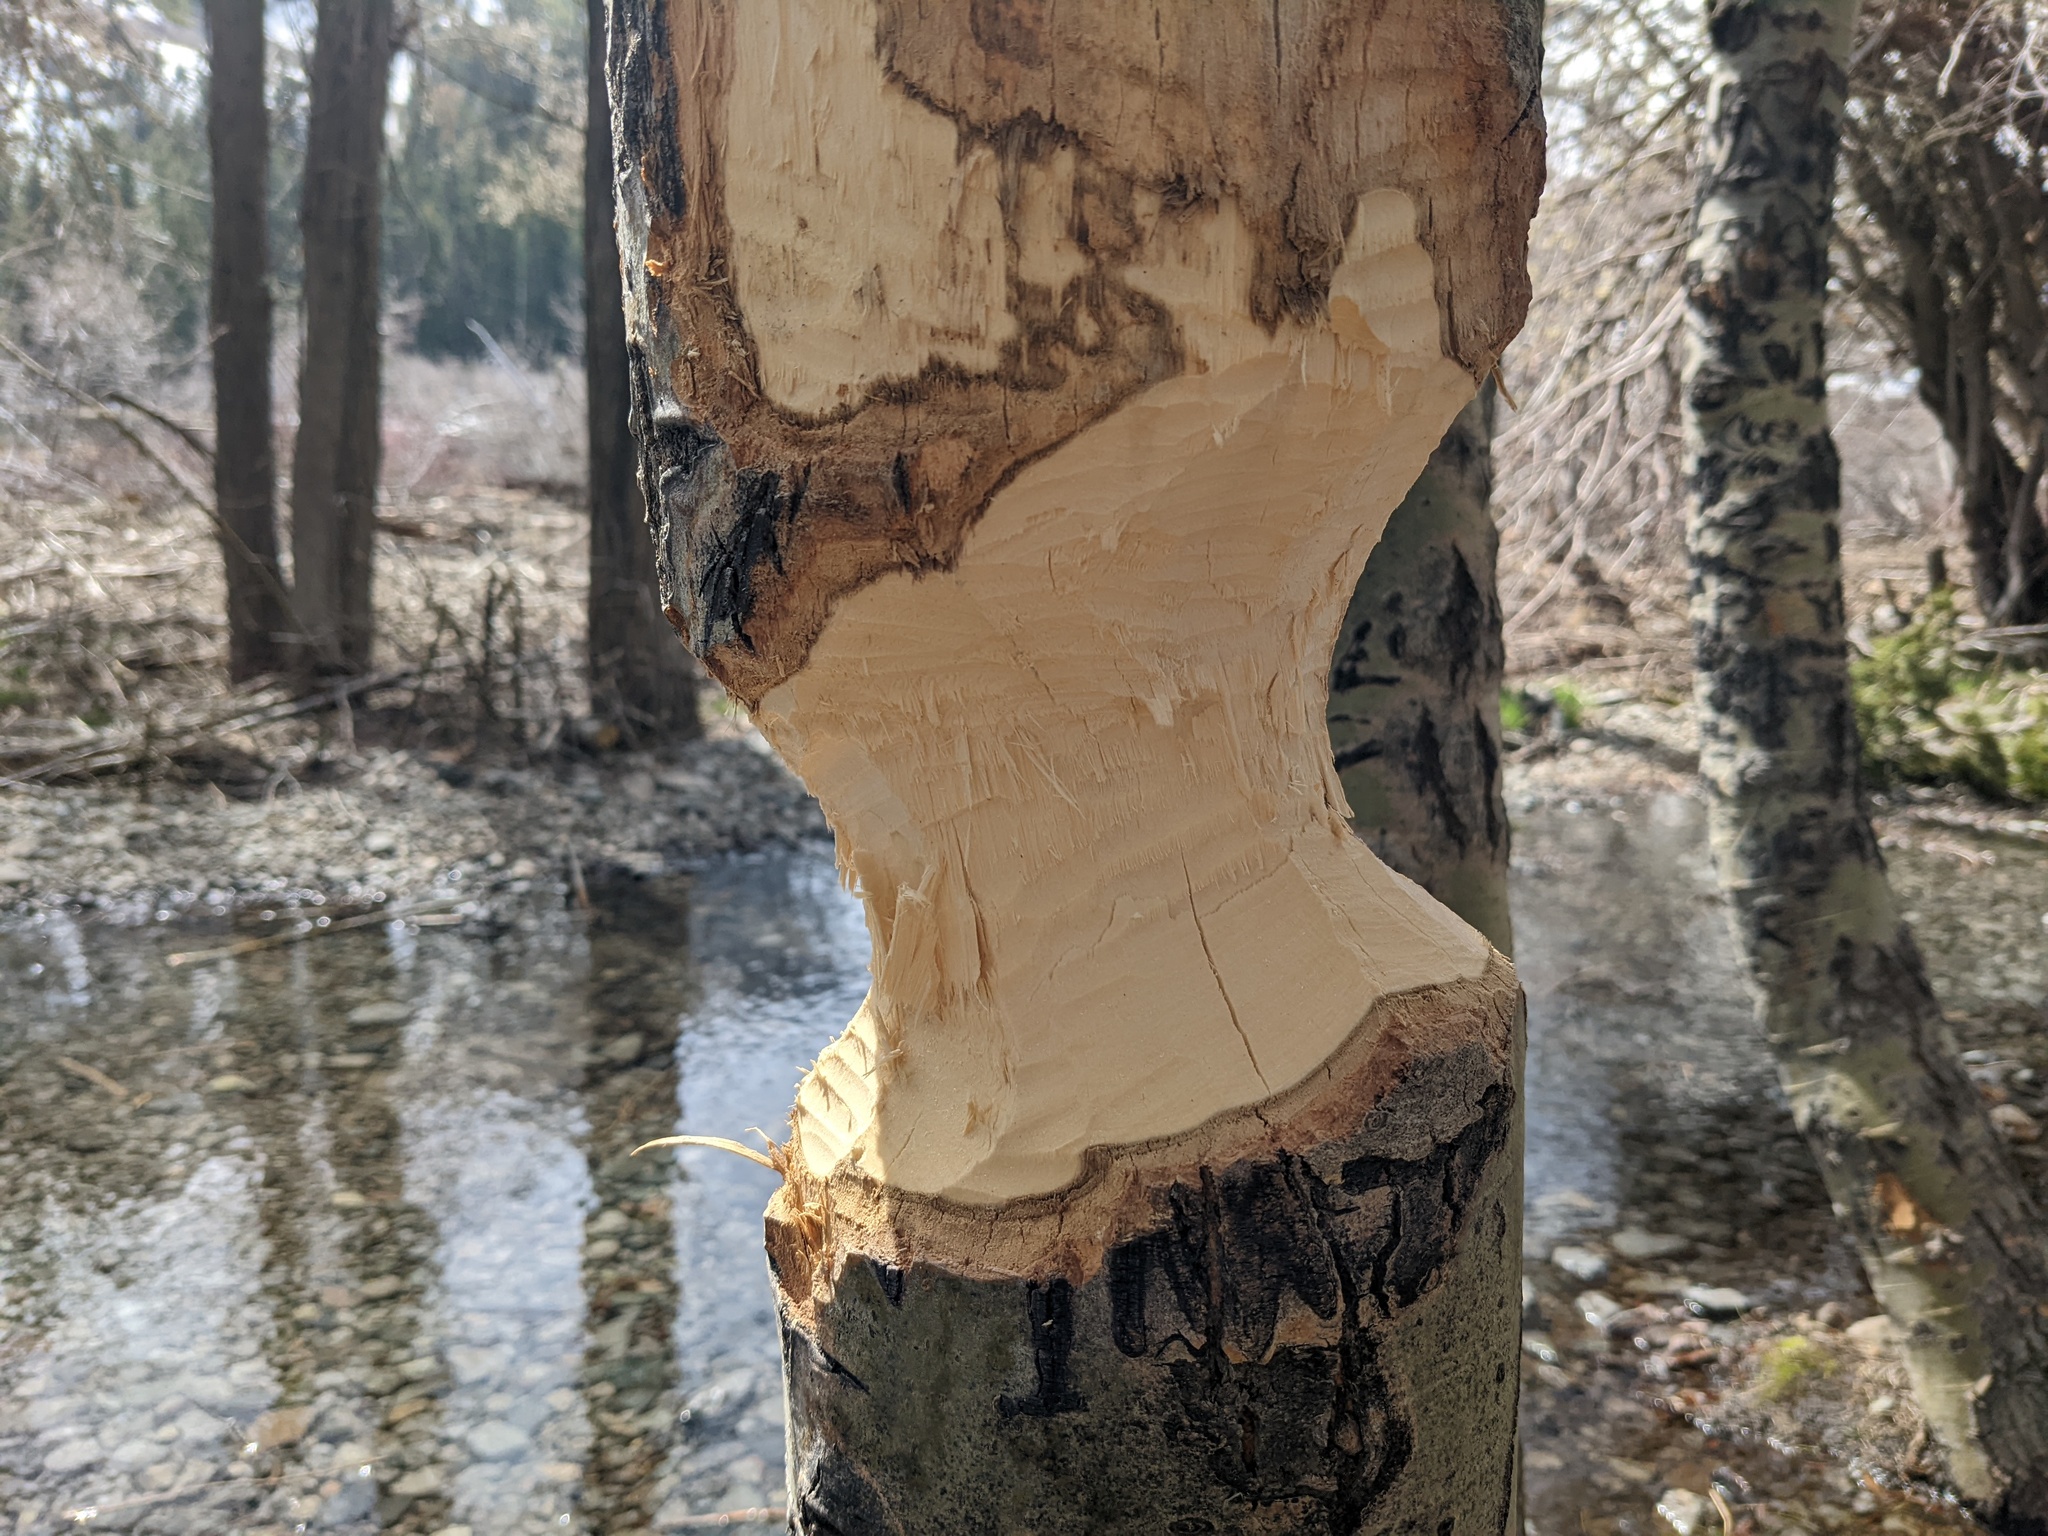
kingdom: Animalia
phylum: Chordata
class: Mammalia
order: Rodentia
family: Castoridae
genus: Castor
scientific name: Castor canadensis
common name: American beaver
